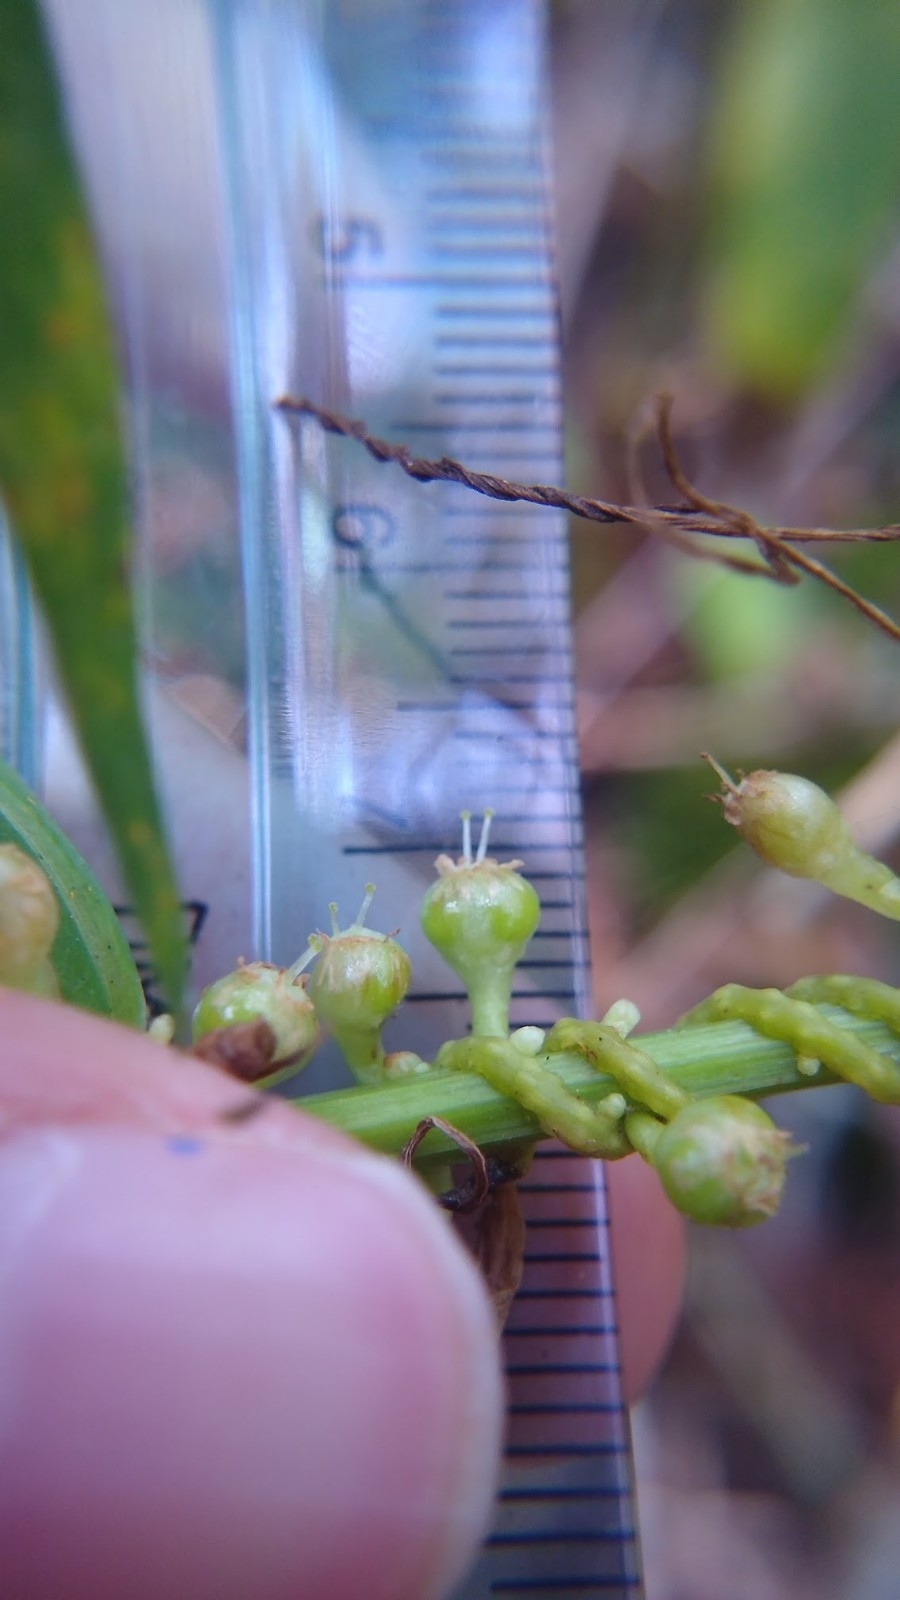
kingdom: Plantae
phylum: Tracheophyta
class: Magnoliopsida
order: Solanales
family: Convolvulaceae
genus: Cuscuta
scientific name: Cuscuta gronovii
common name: Common dodder
